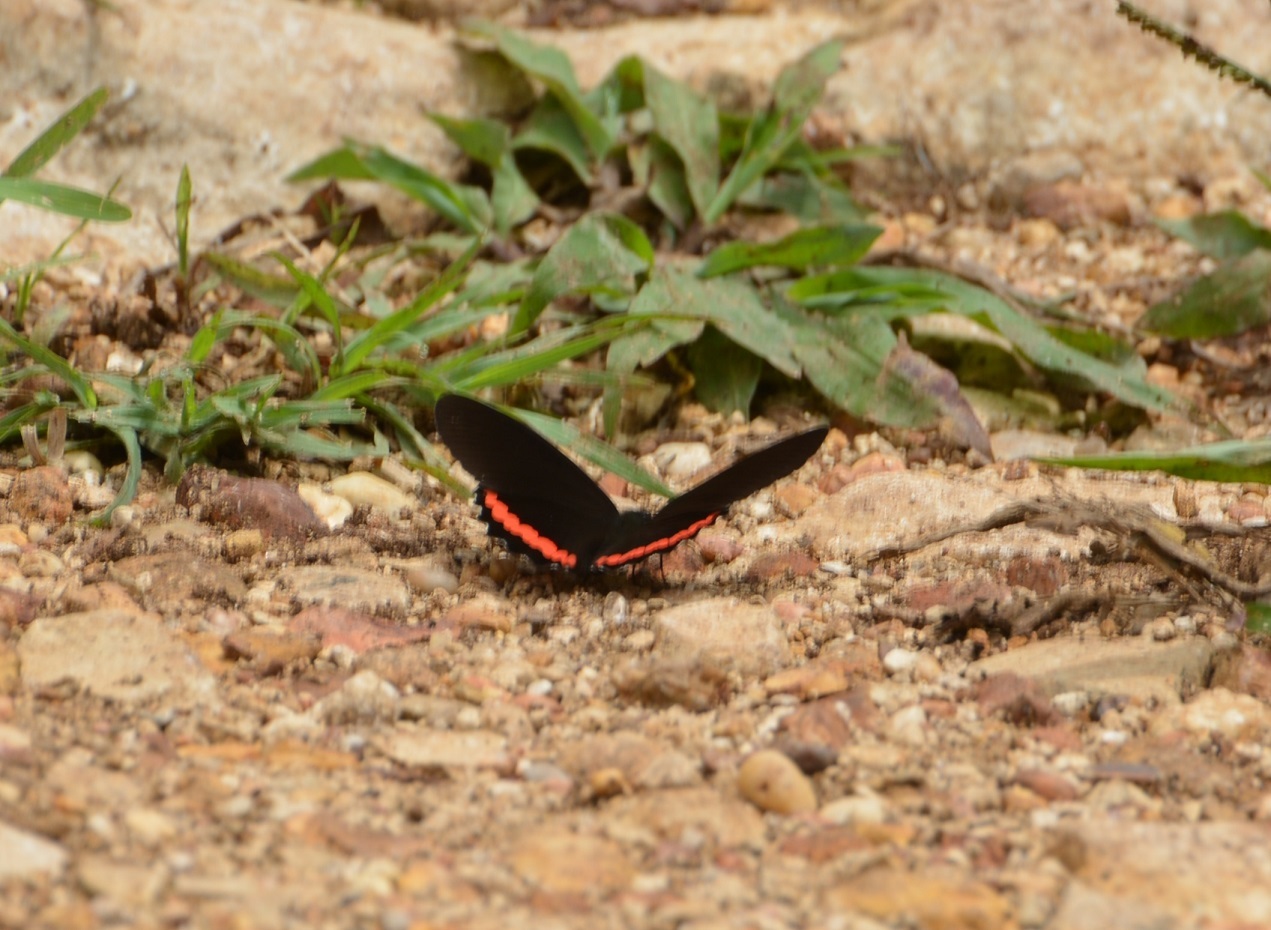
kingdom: Animalia
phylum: Arthropoda
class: Insecta
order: Lepidoptera
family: Nymphalidae
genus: Biblis
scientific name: Biblis aganisa
